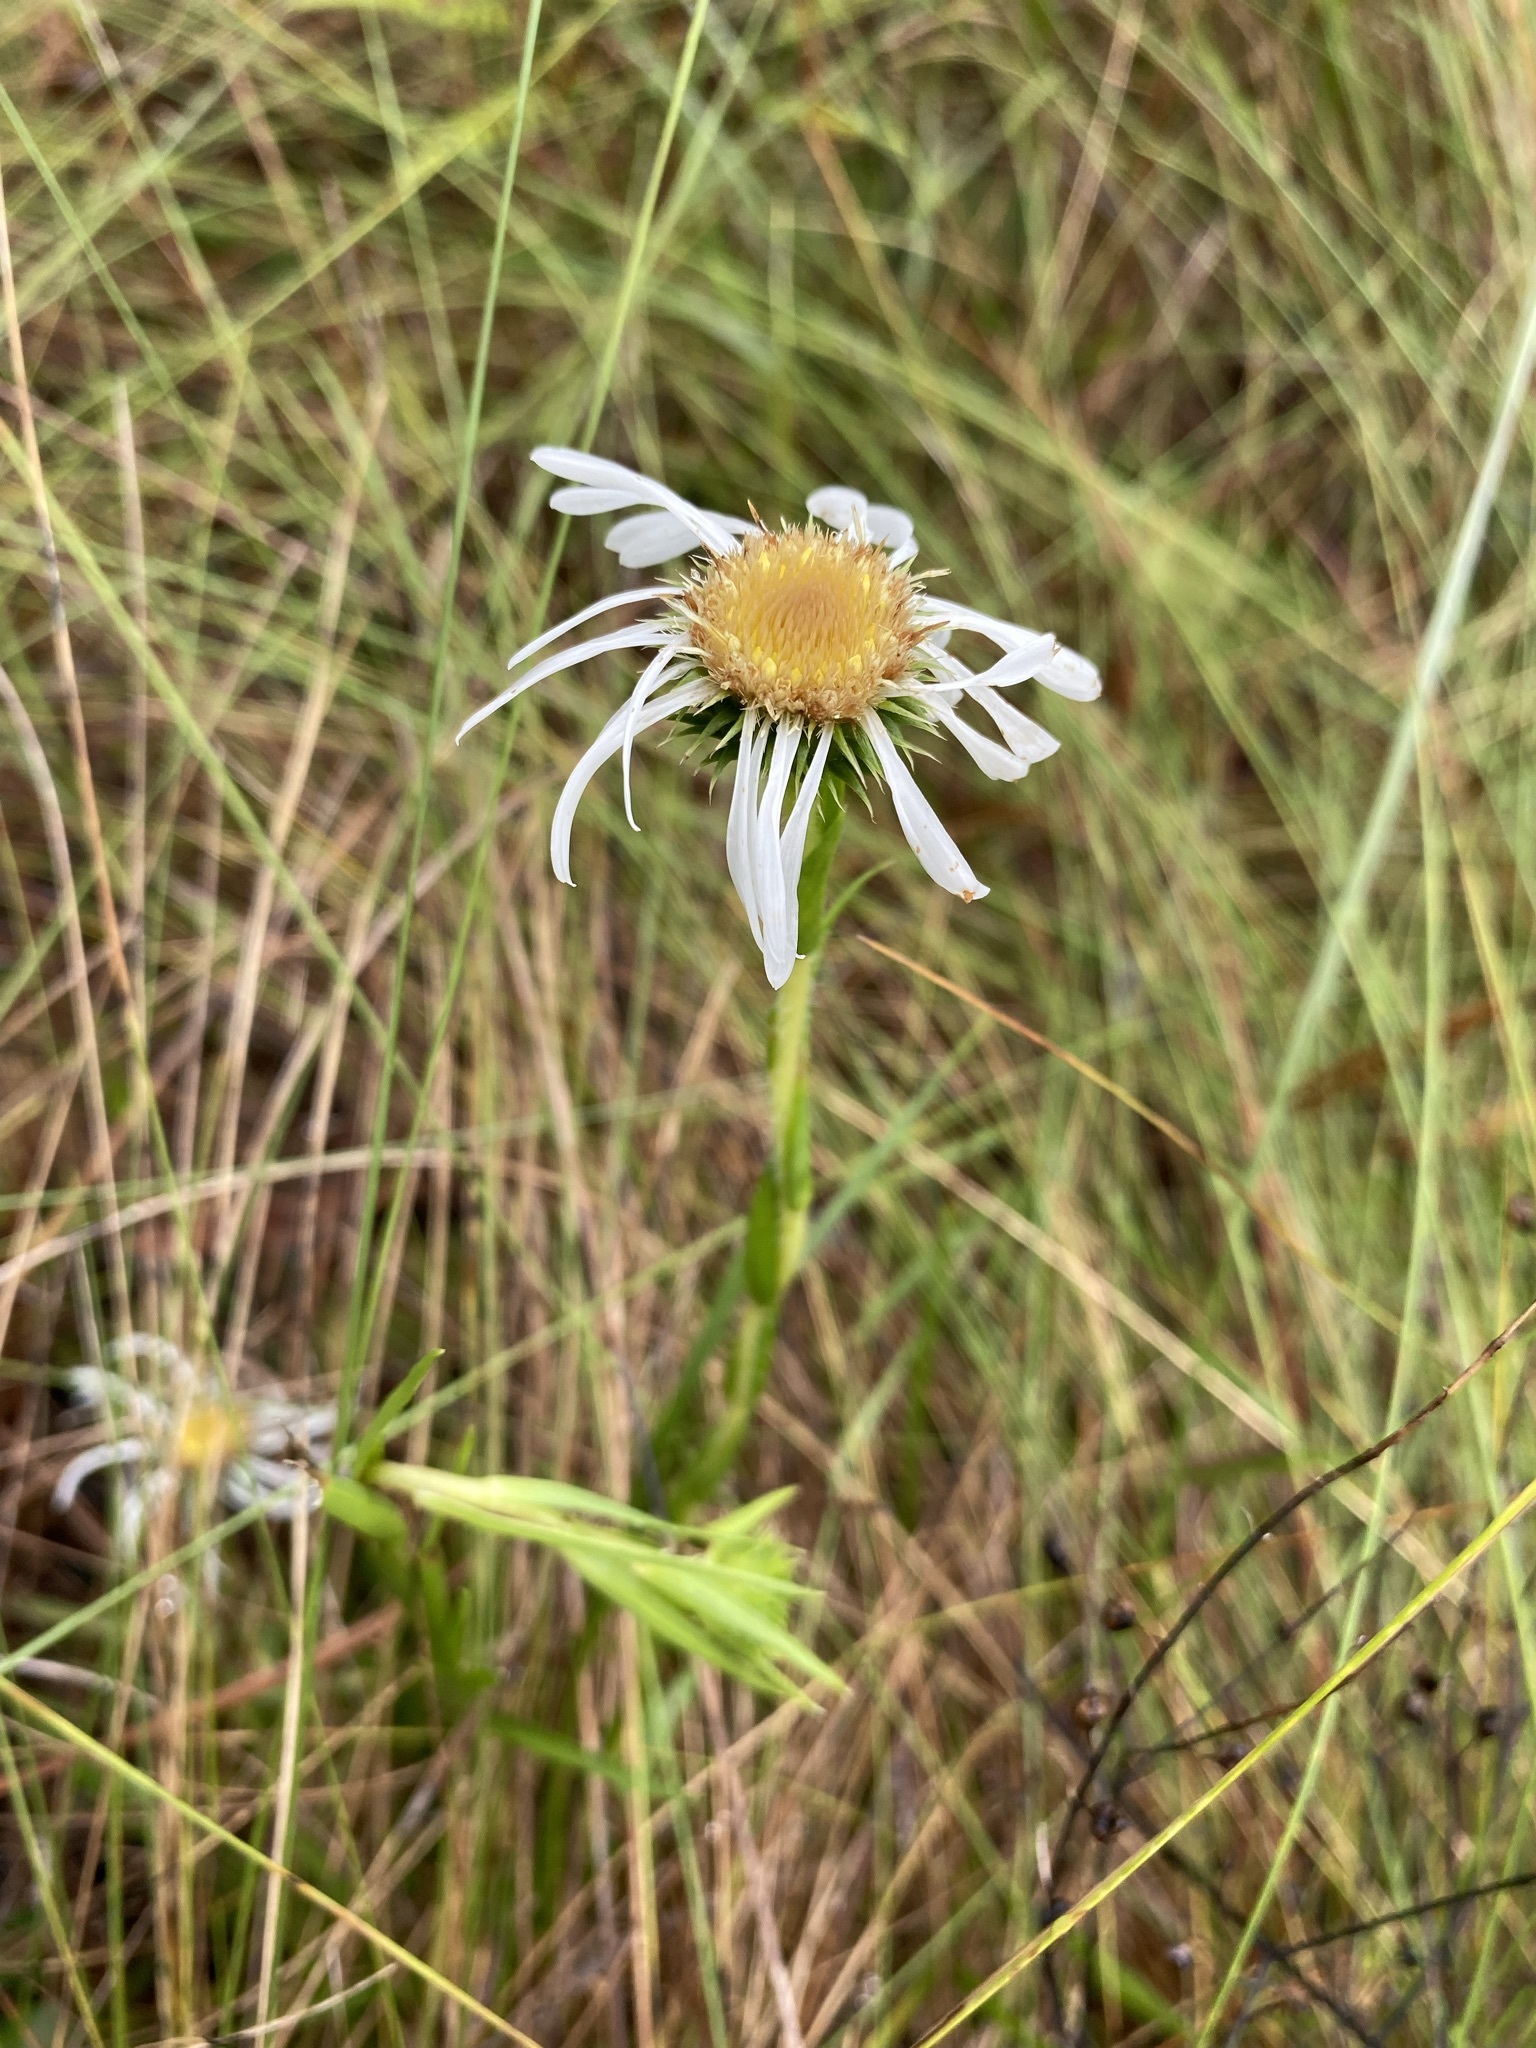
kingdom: Plantae
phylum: Tracheophyta
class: Magnoliopsida
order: Asterales
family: Asteraceae
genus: Eurybia
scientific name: Eurybia eryngiifolia
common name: Thistle-leaf aster
